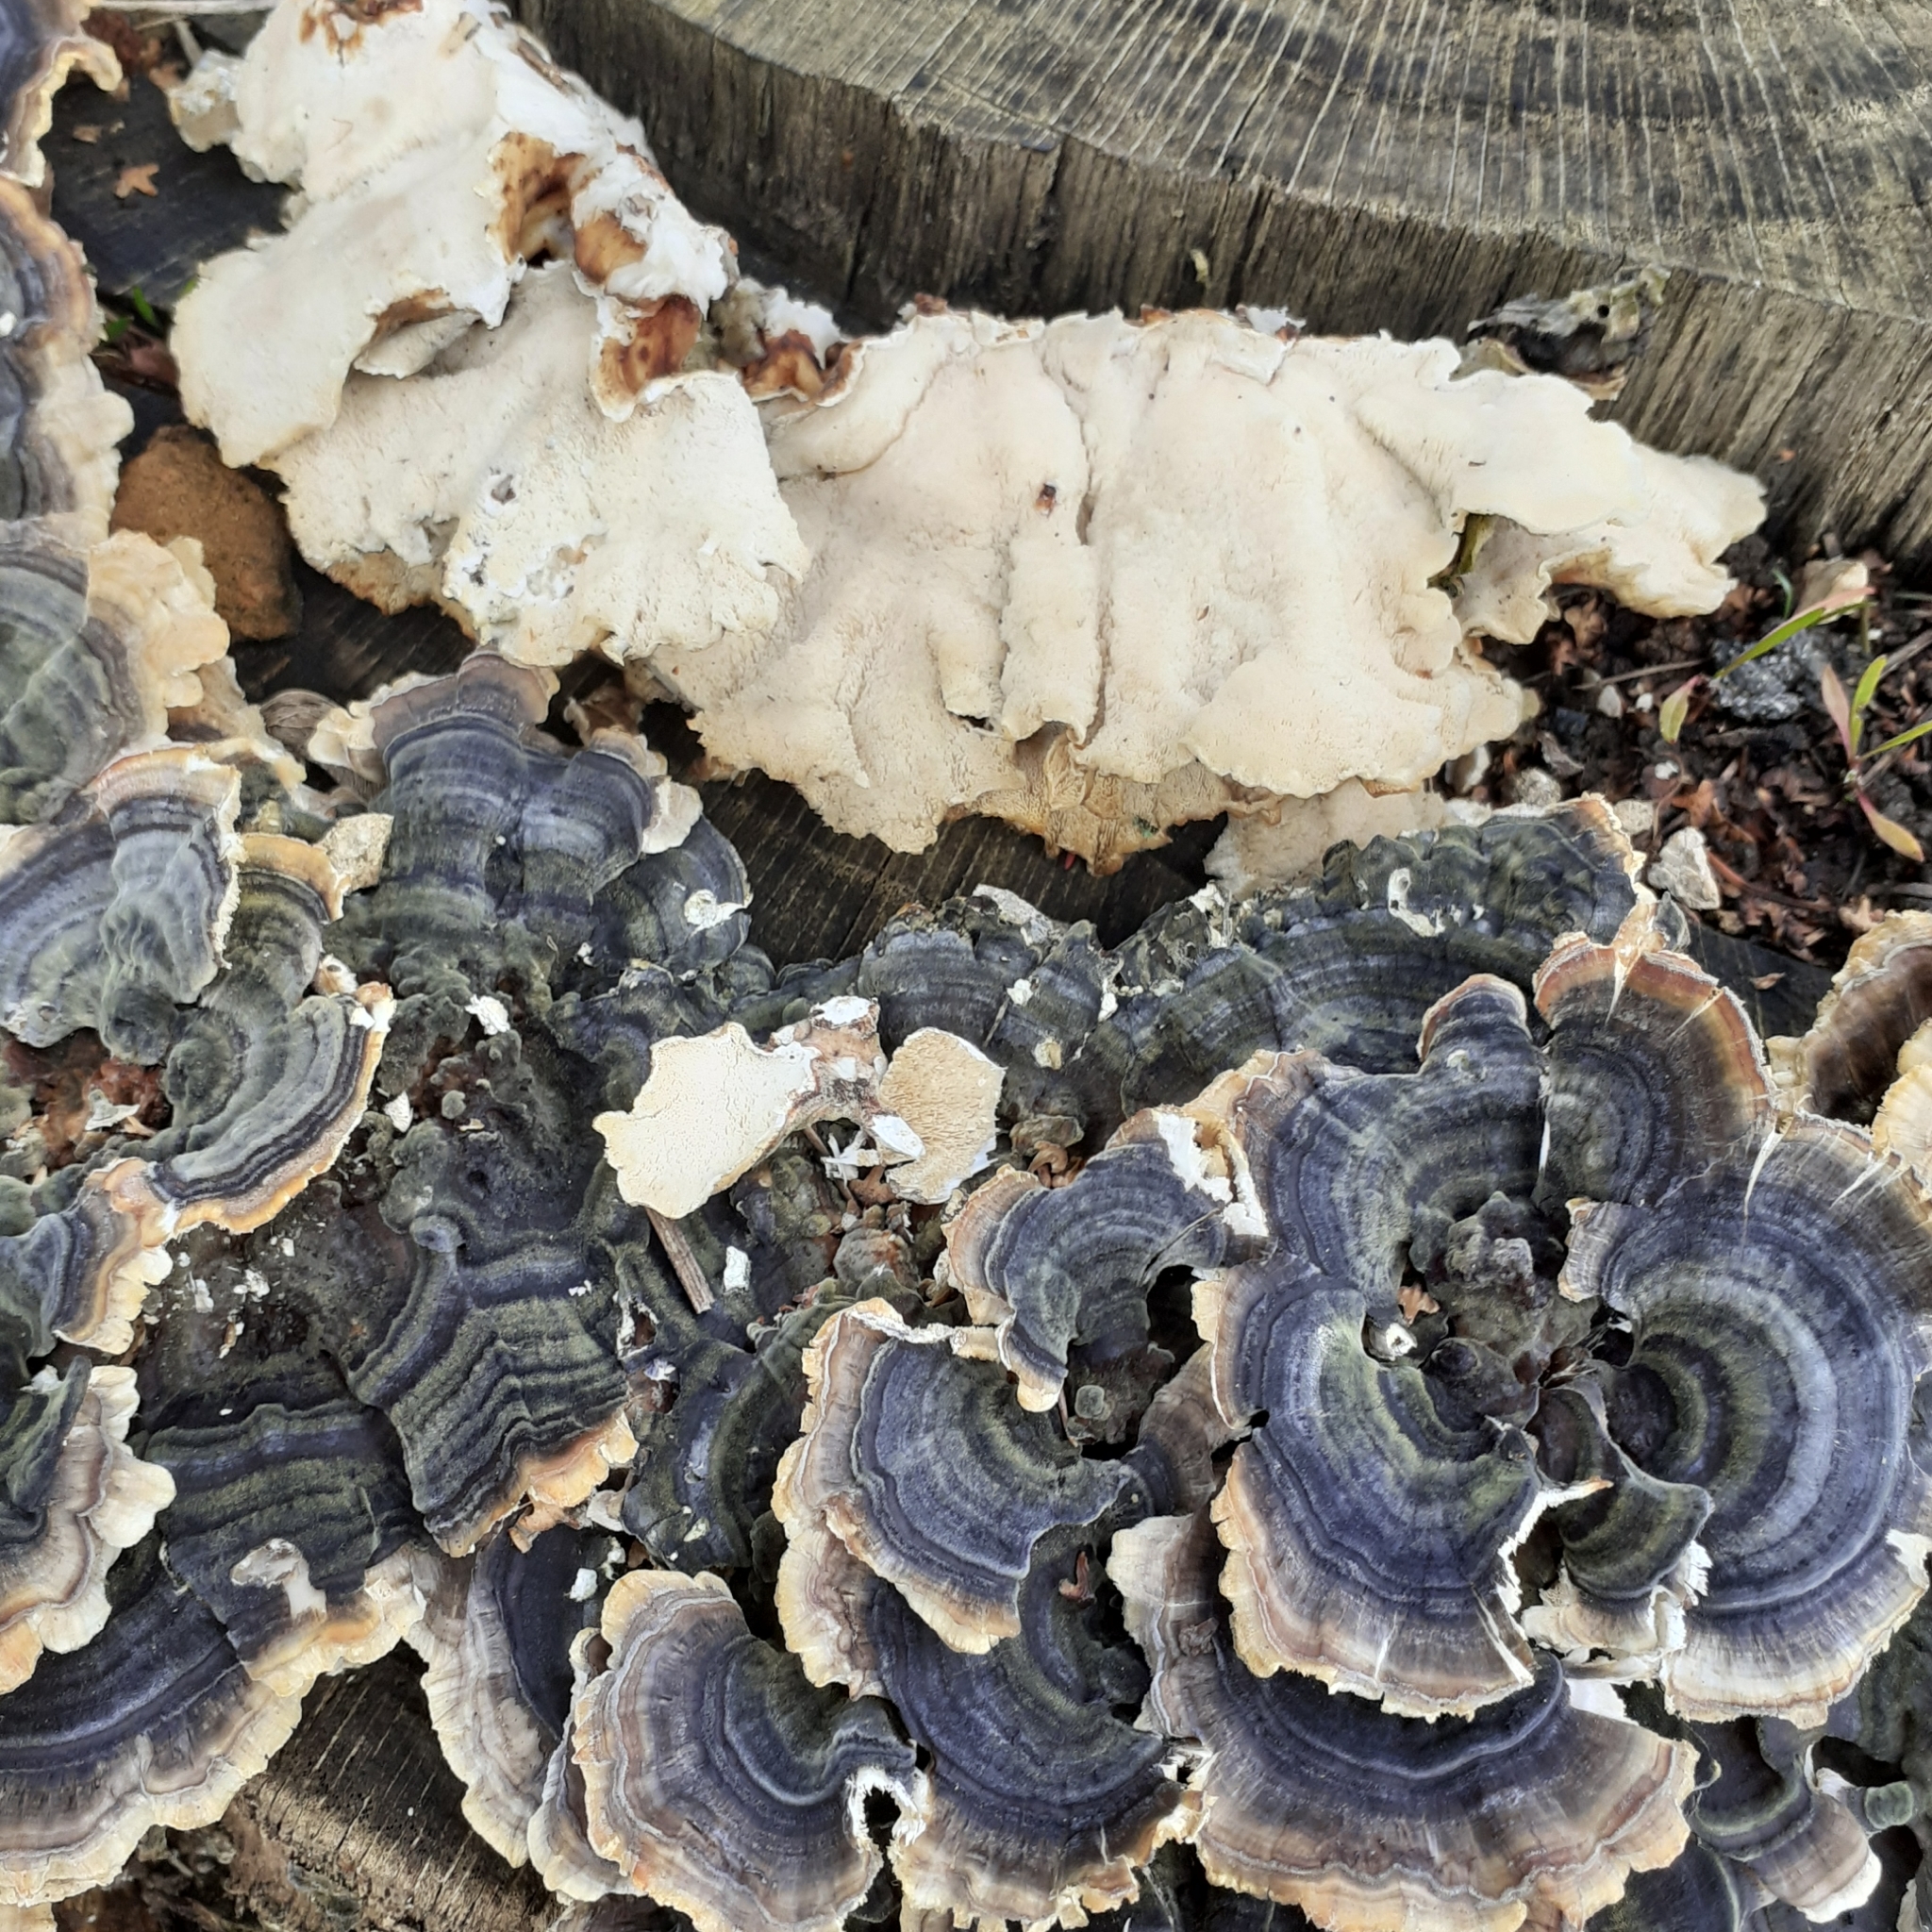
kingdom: Fungi
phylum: Basidiomycota
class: Agaricomycetes
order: Polyporales
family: Polyporaceae
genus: Trametes
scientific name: Trametes versicolor
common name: Turkeytail
